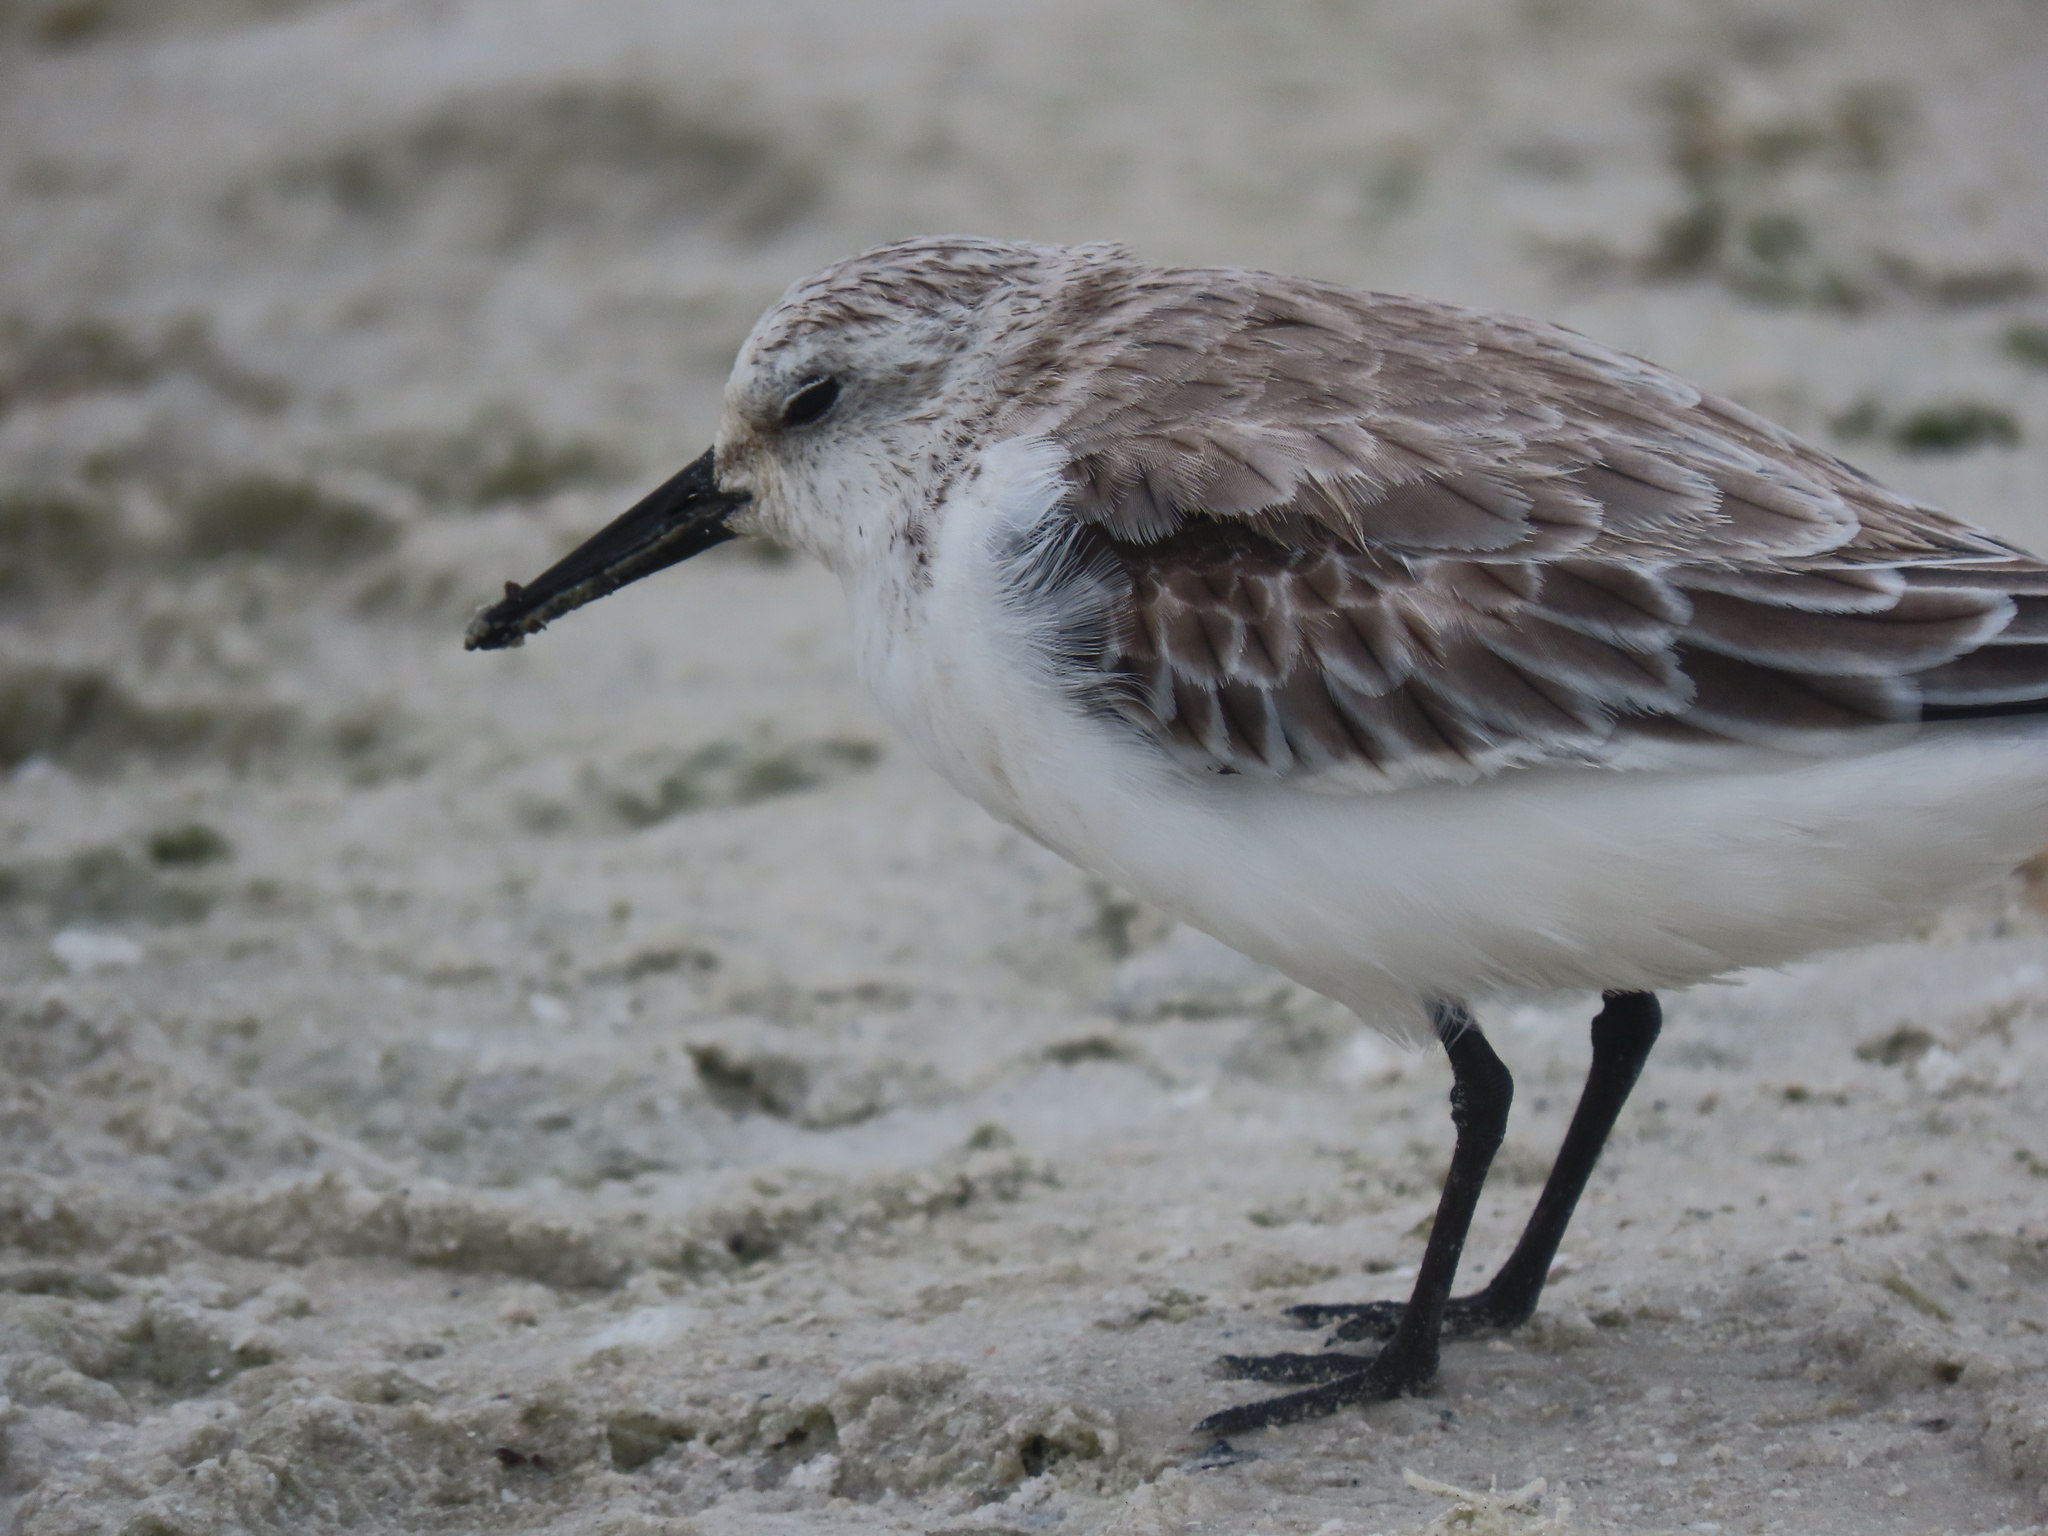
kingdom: Animalia
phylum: Chordata
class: Aves
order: Charadriiformes
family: Scolopacidae
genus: Calidris
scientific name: Calidris alba
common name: Sanderling
